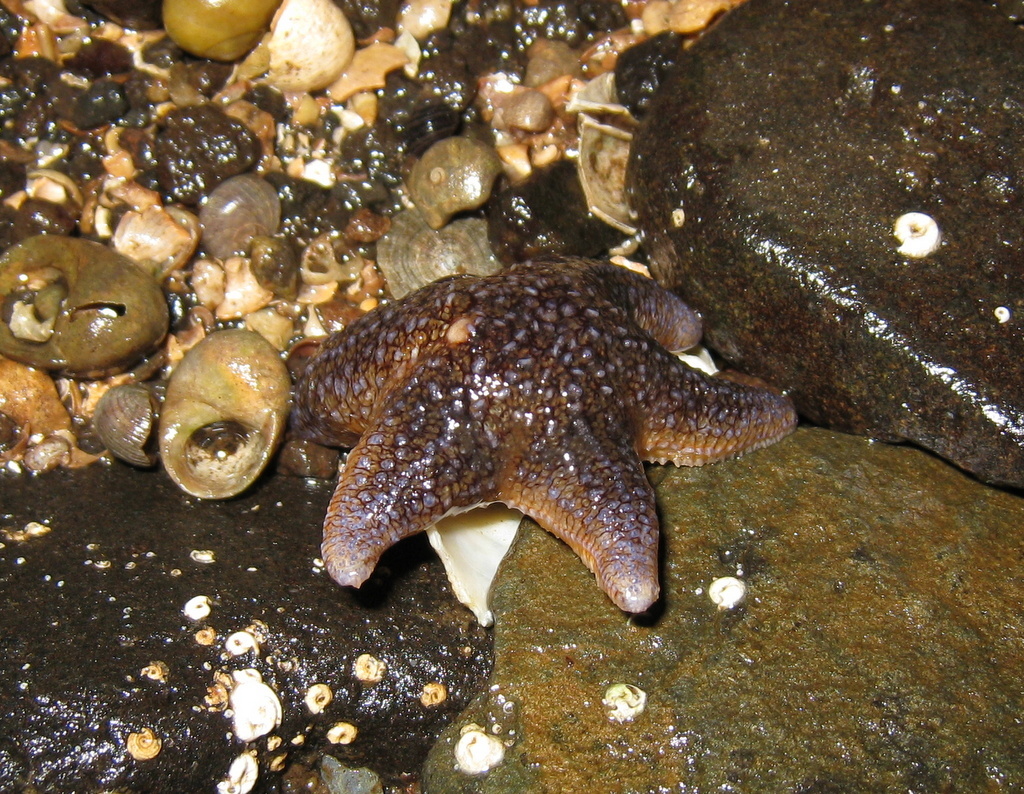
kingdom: Animalia
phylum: Echinodermata
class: Asteroidea
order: Forcipulatida
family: Asteriidae
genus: Asterias
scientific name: Asterias rubens
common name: Common starfish
